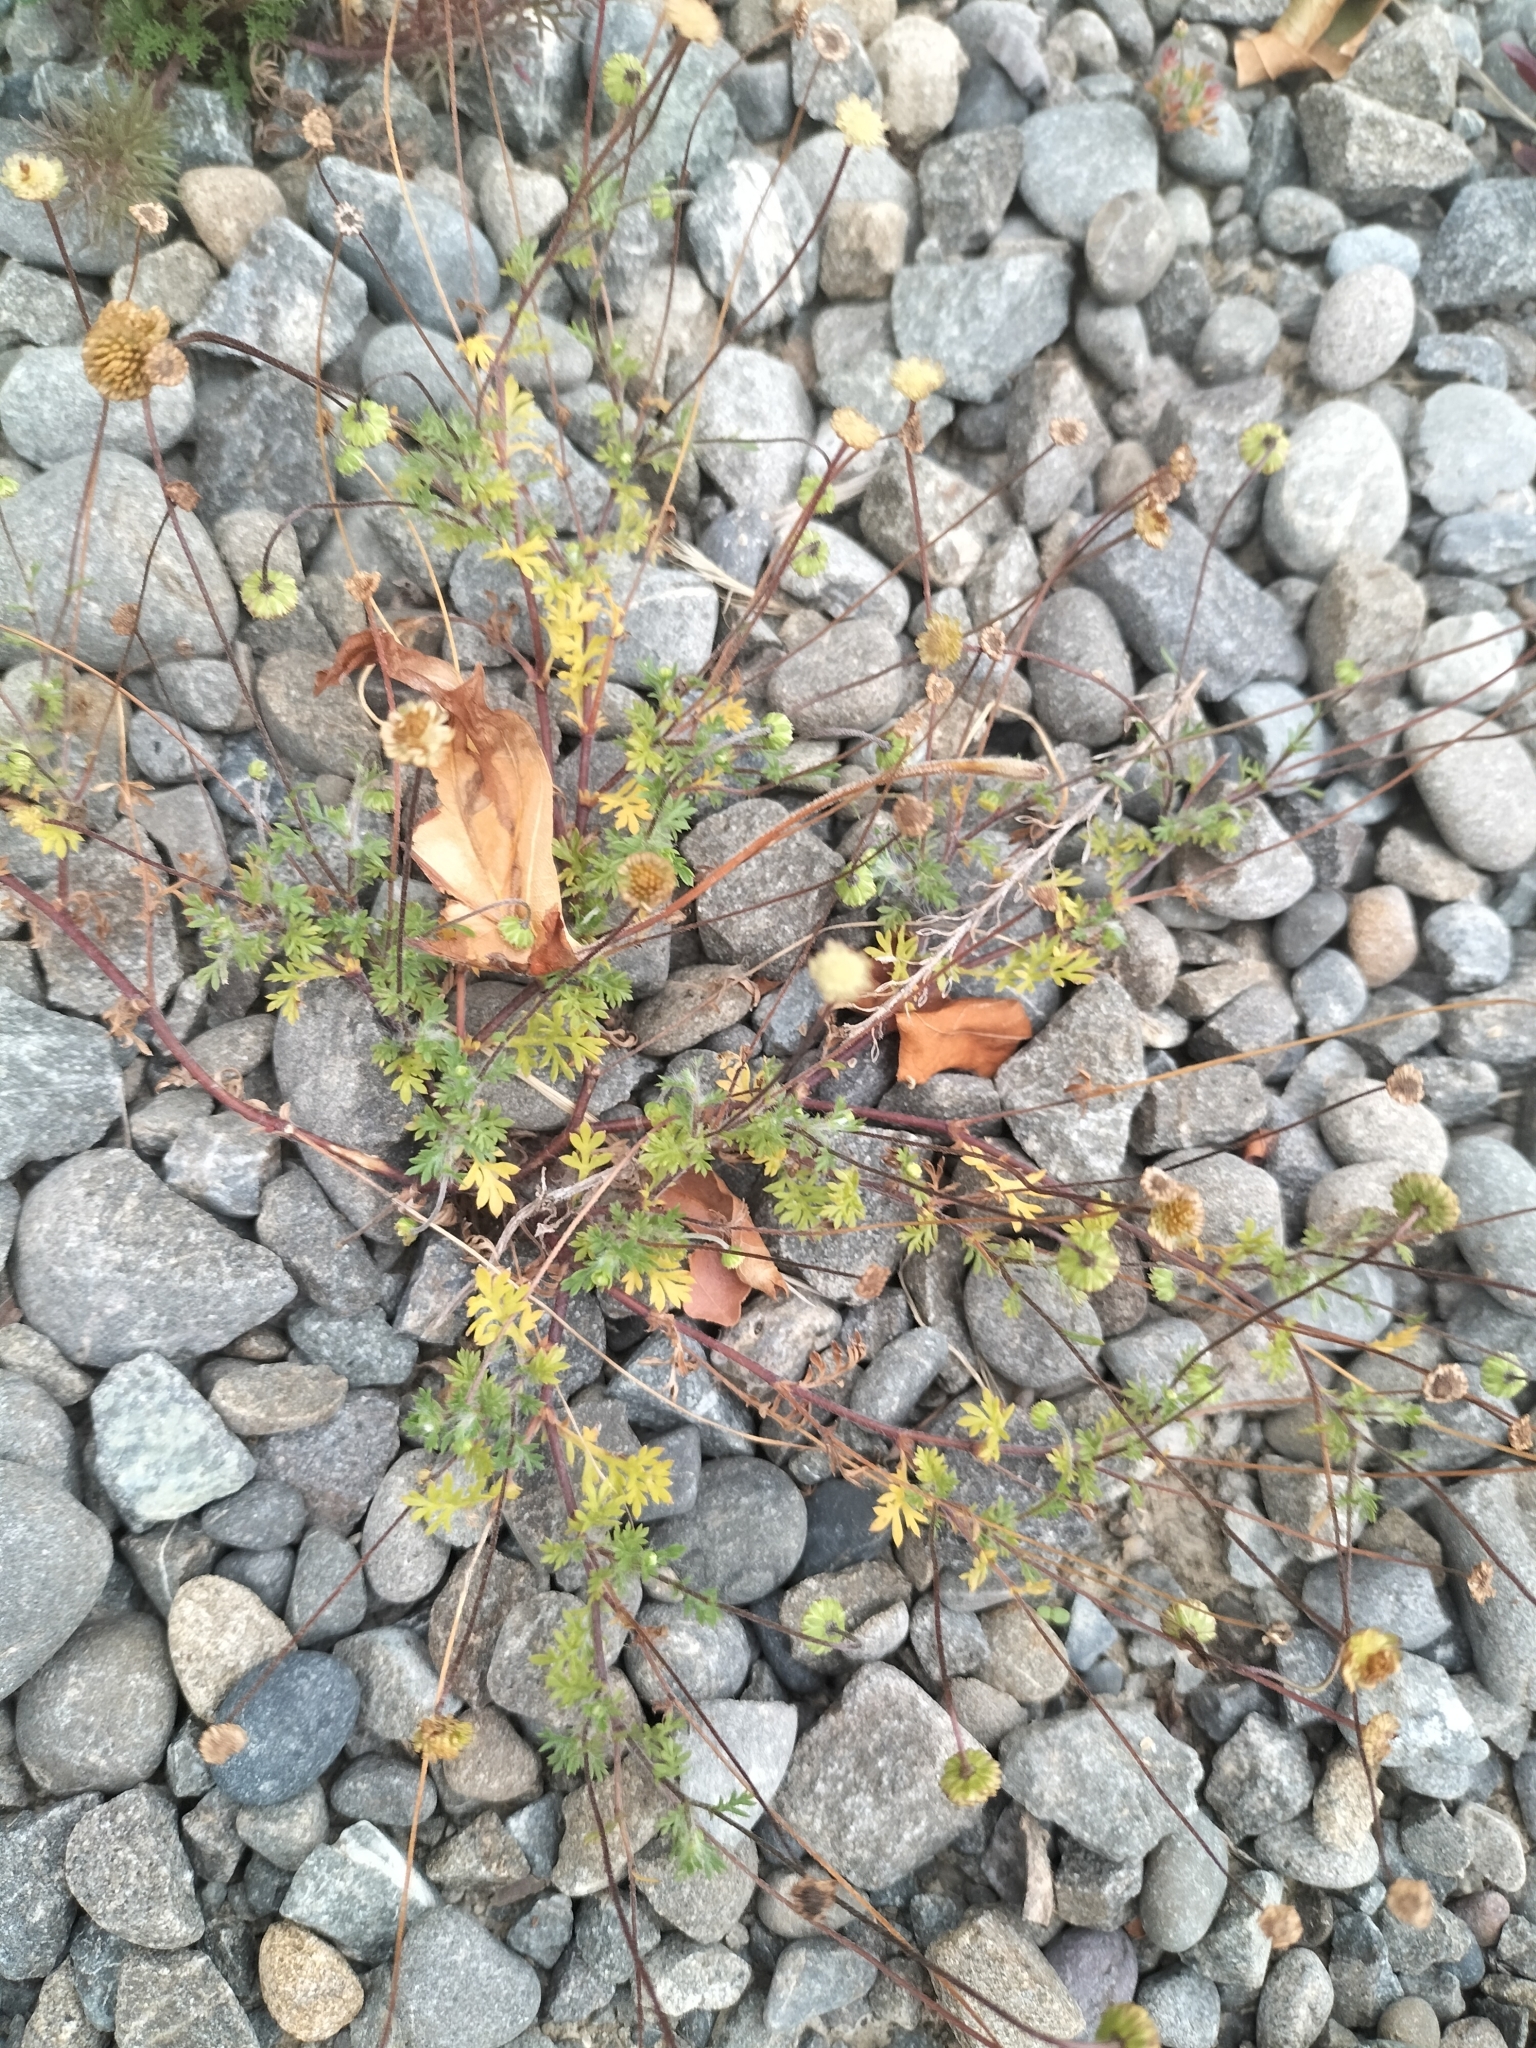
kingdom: Plantae
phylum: Tracheophyta
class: Magnoliopsida
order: Asterales
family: Asteraceae
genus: Cotula
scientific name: Cotula australis
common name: Australian waterbuttons
